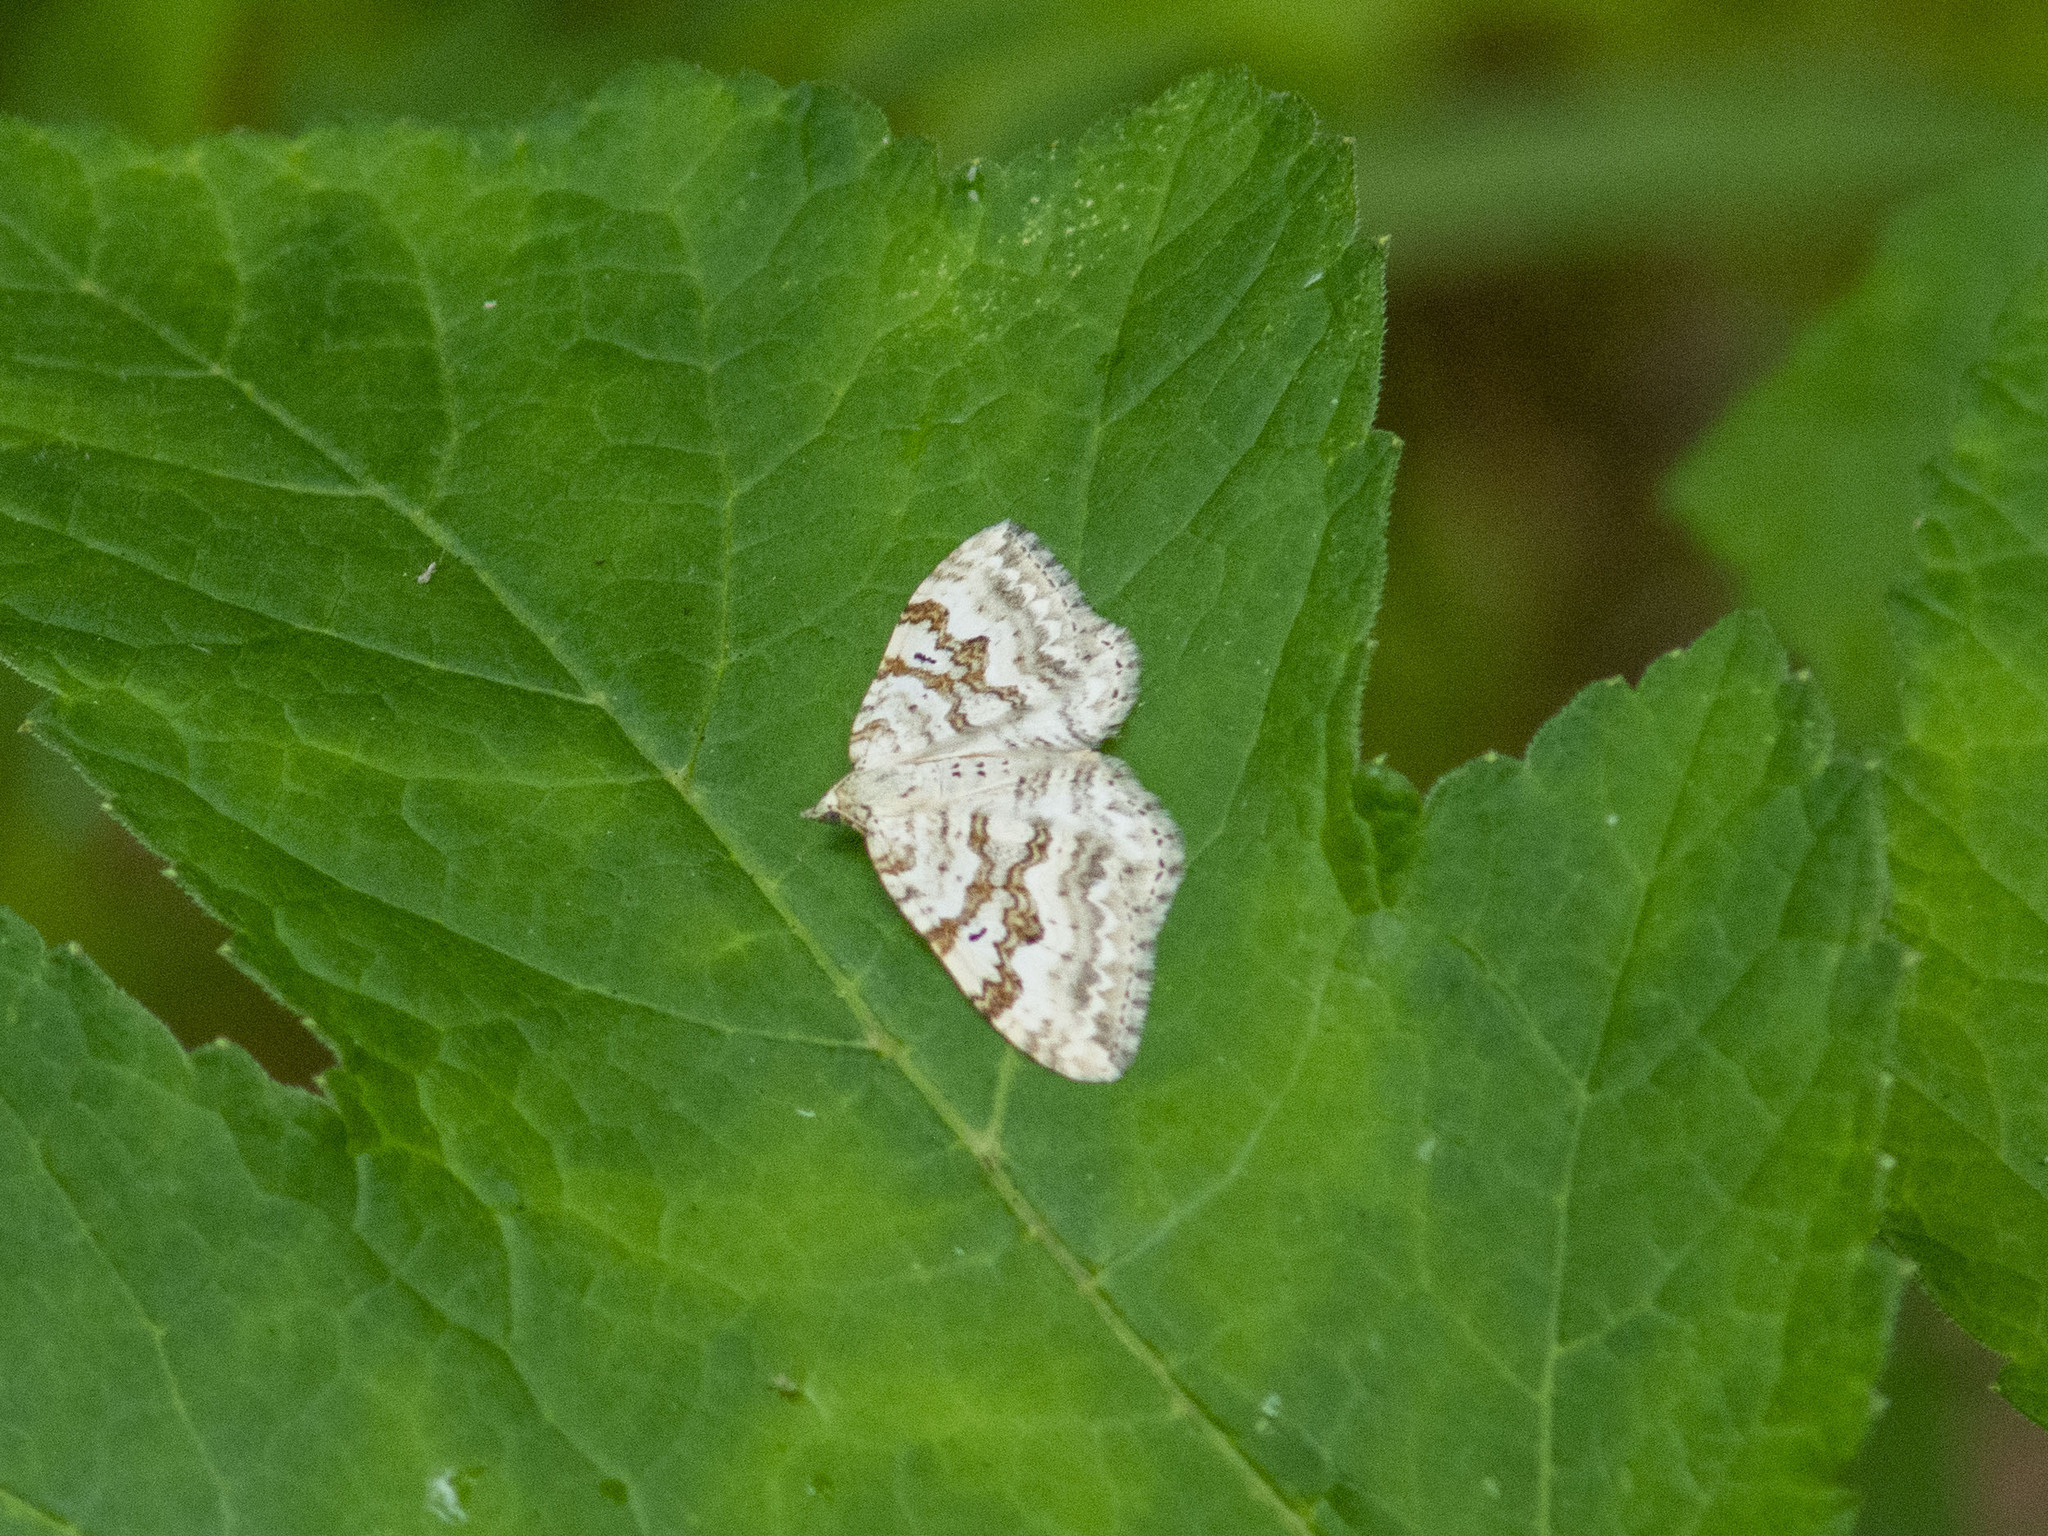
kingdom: Animalia
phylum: Arthropoda
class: Insecta
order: Lepidoptera
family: Geometridae
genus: Xanthorhoe
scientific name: Xanthorhoe montanata
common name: Silver-ground carpet
